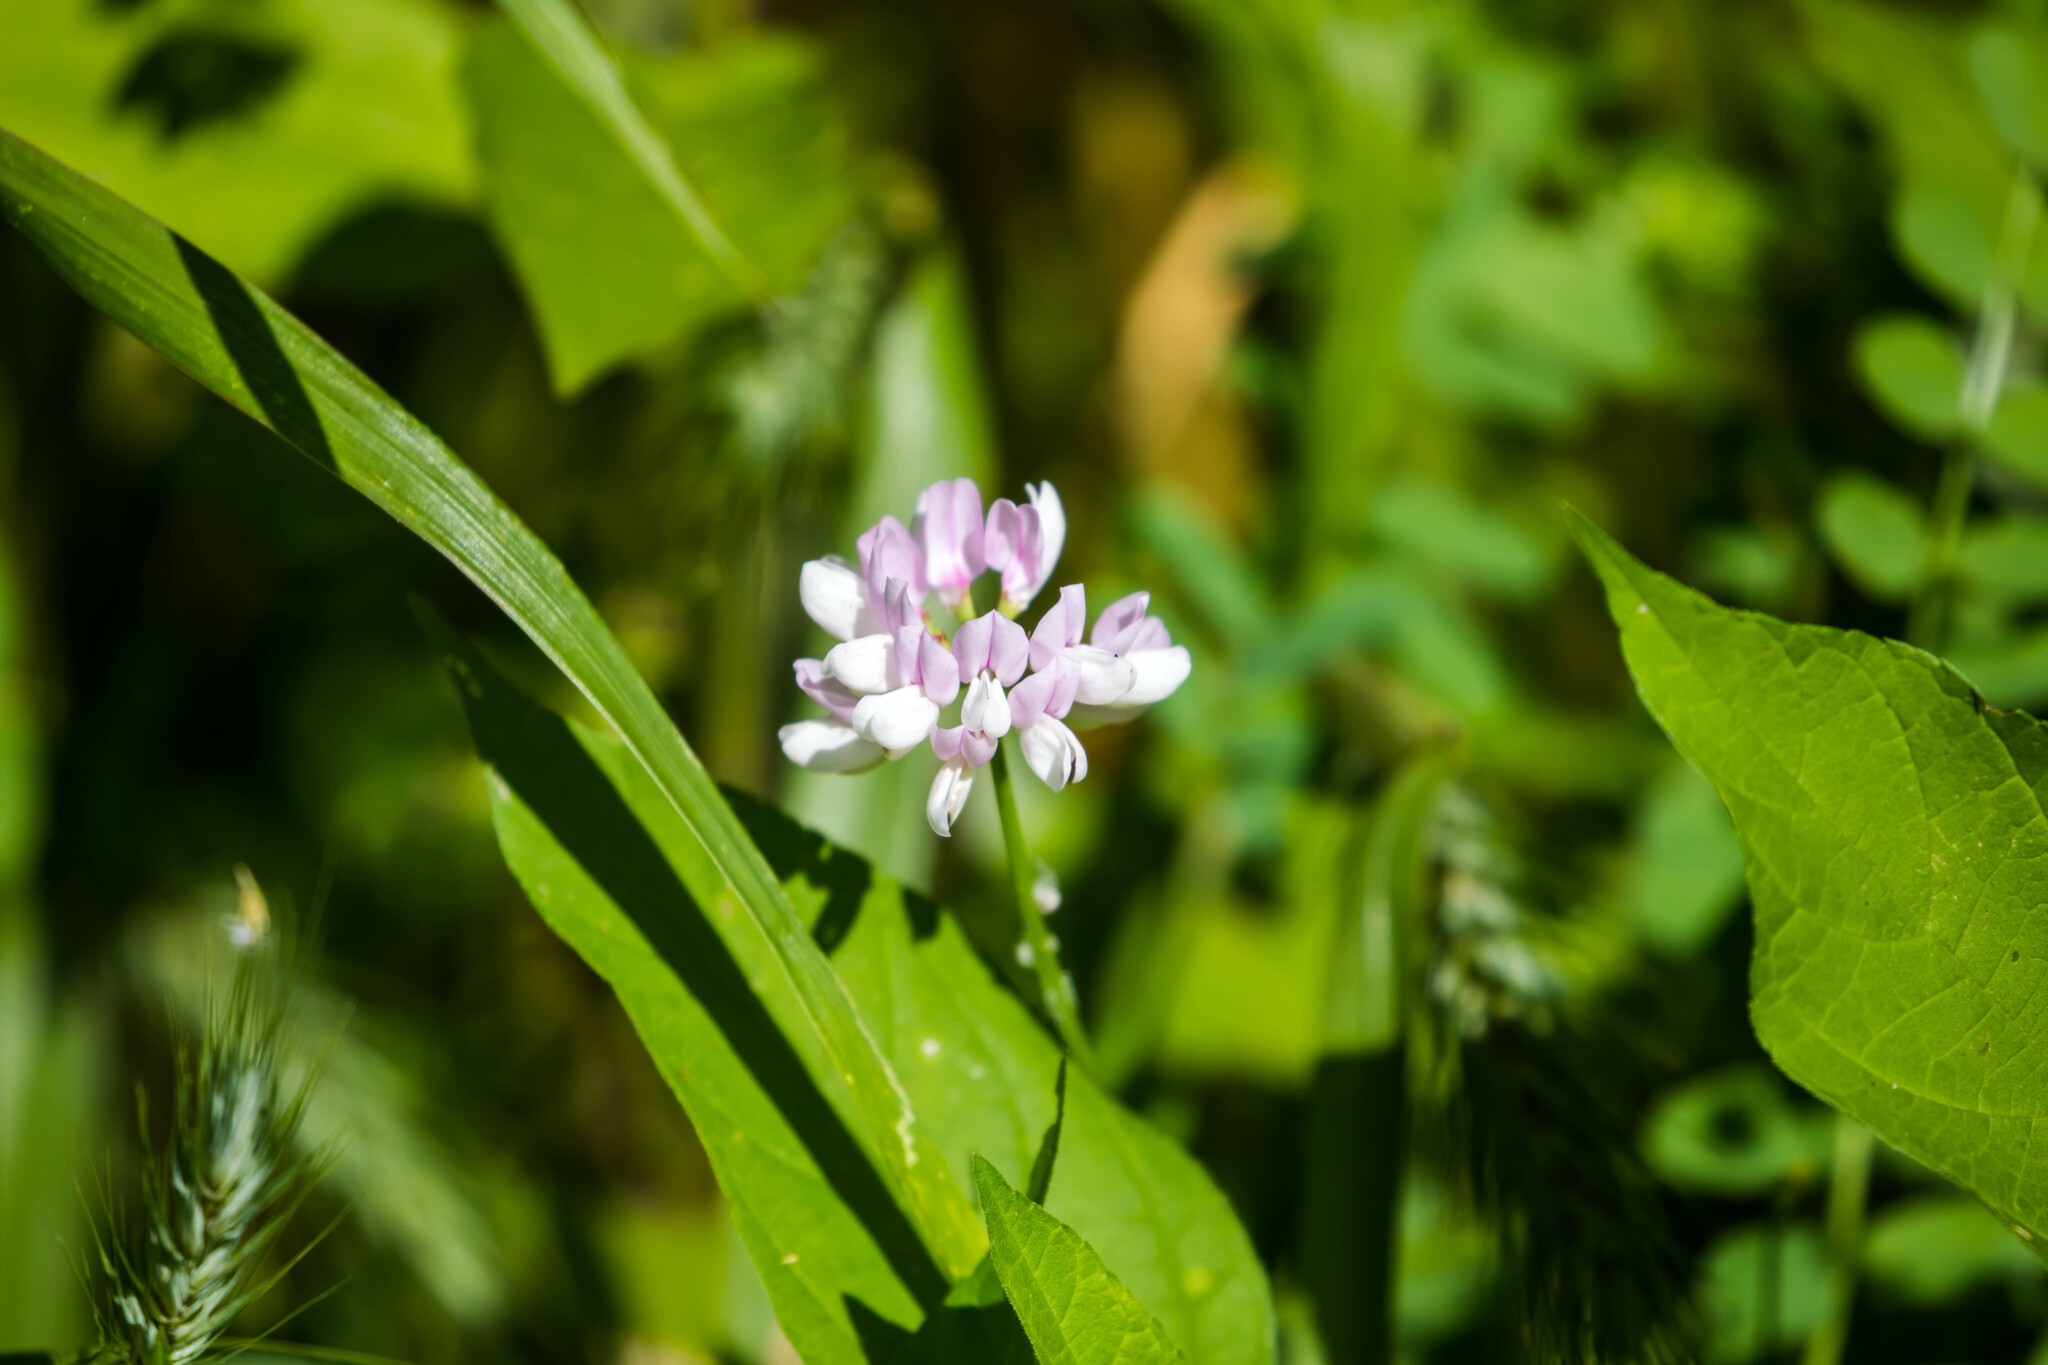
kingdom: Plantae
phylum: Tracheophyta
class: Magnoliopsida
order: Fabales
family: Fabaceae
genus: Coronilla
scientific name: Coronilla varia
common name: Crownvetch
